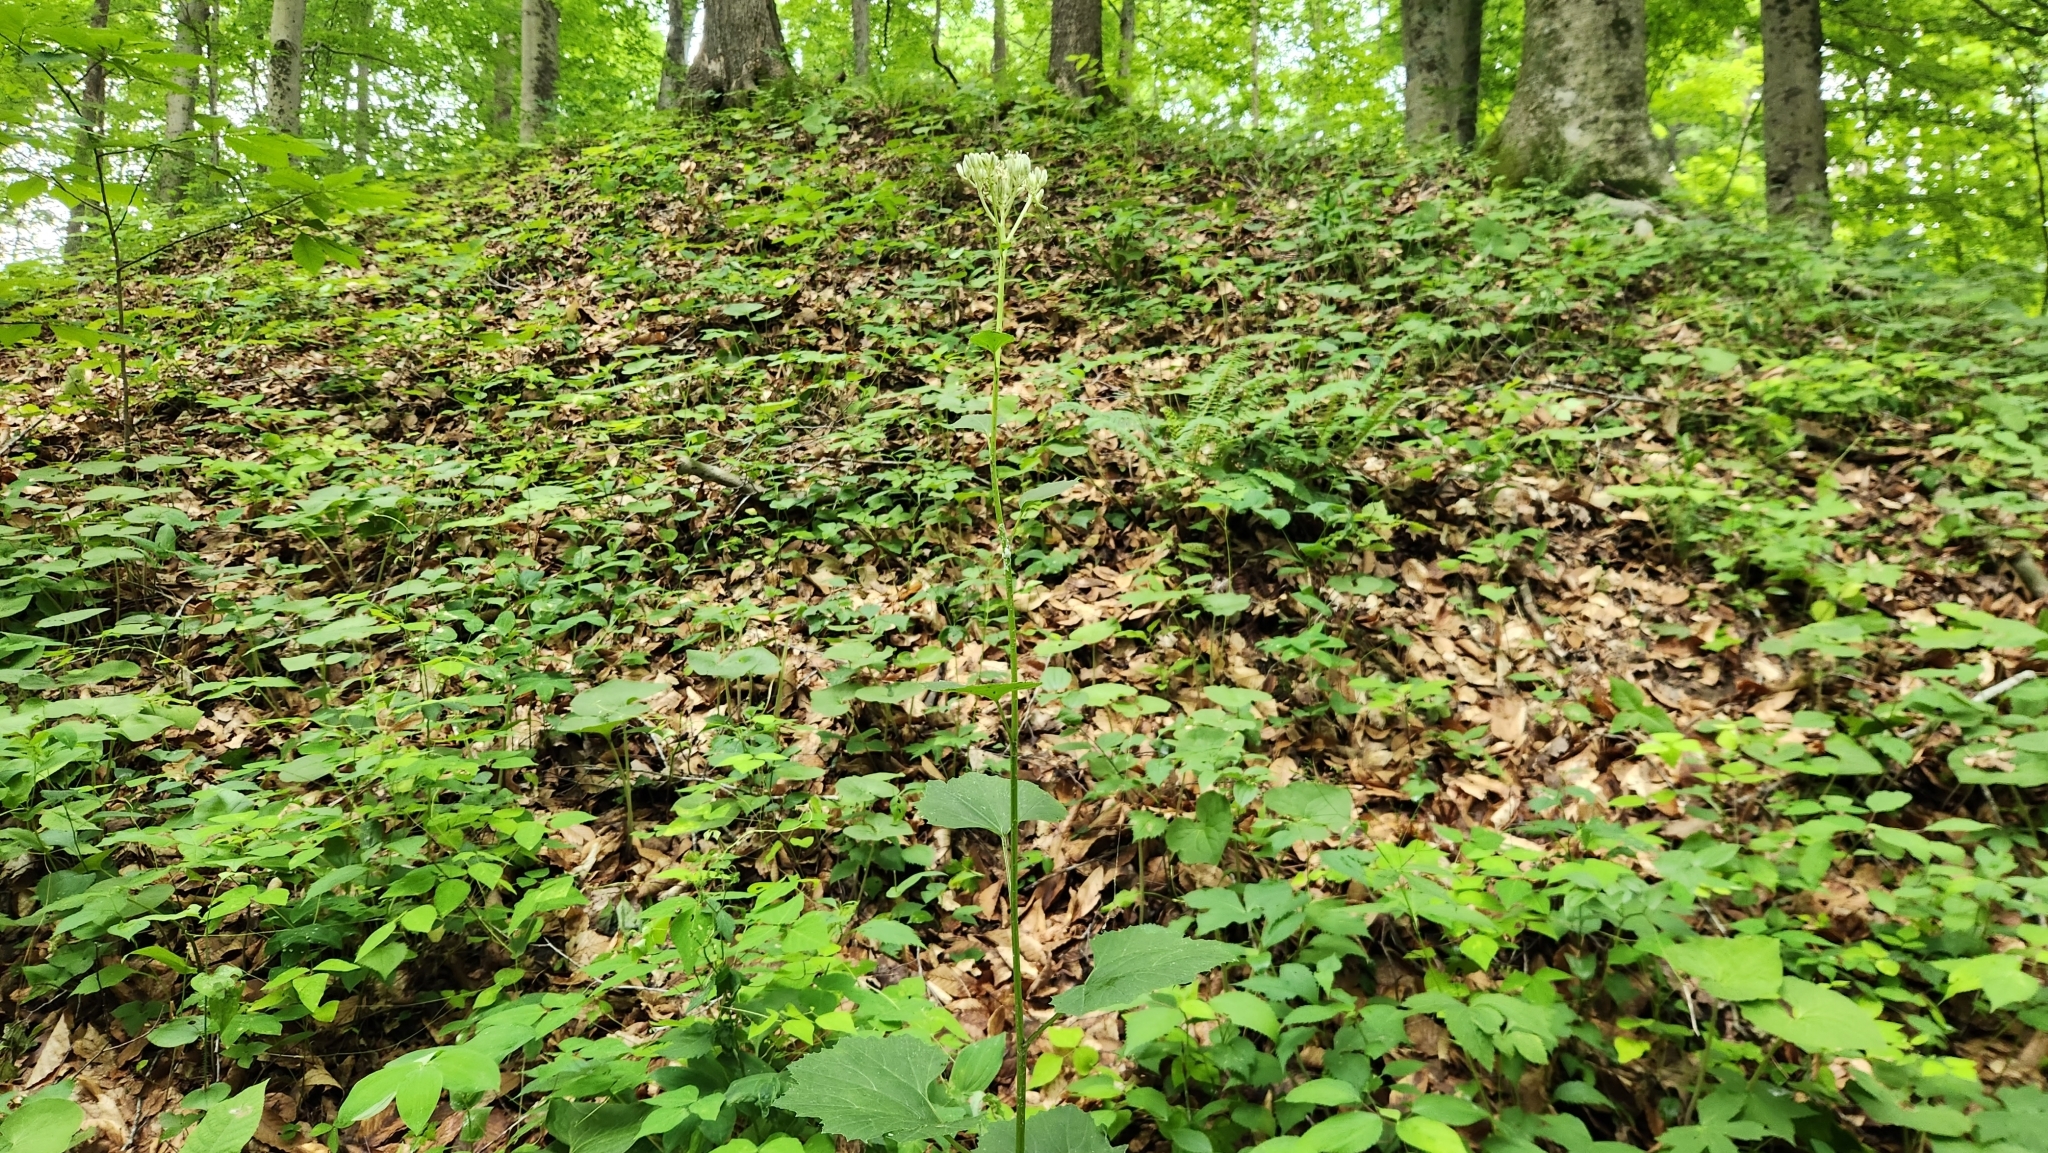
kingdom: Plantae
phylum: Tracheophyta
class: Magnoliopsida
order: Asterales
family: Asteraceae
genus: Arnoglossum
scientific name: Arnoglossum reniforme
